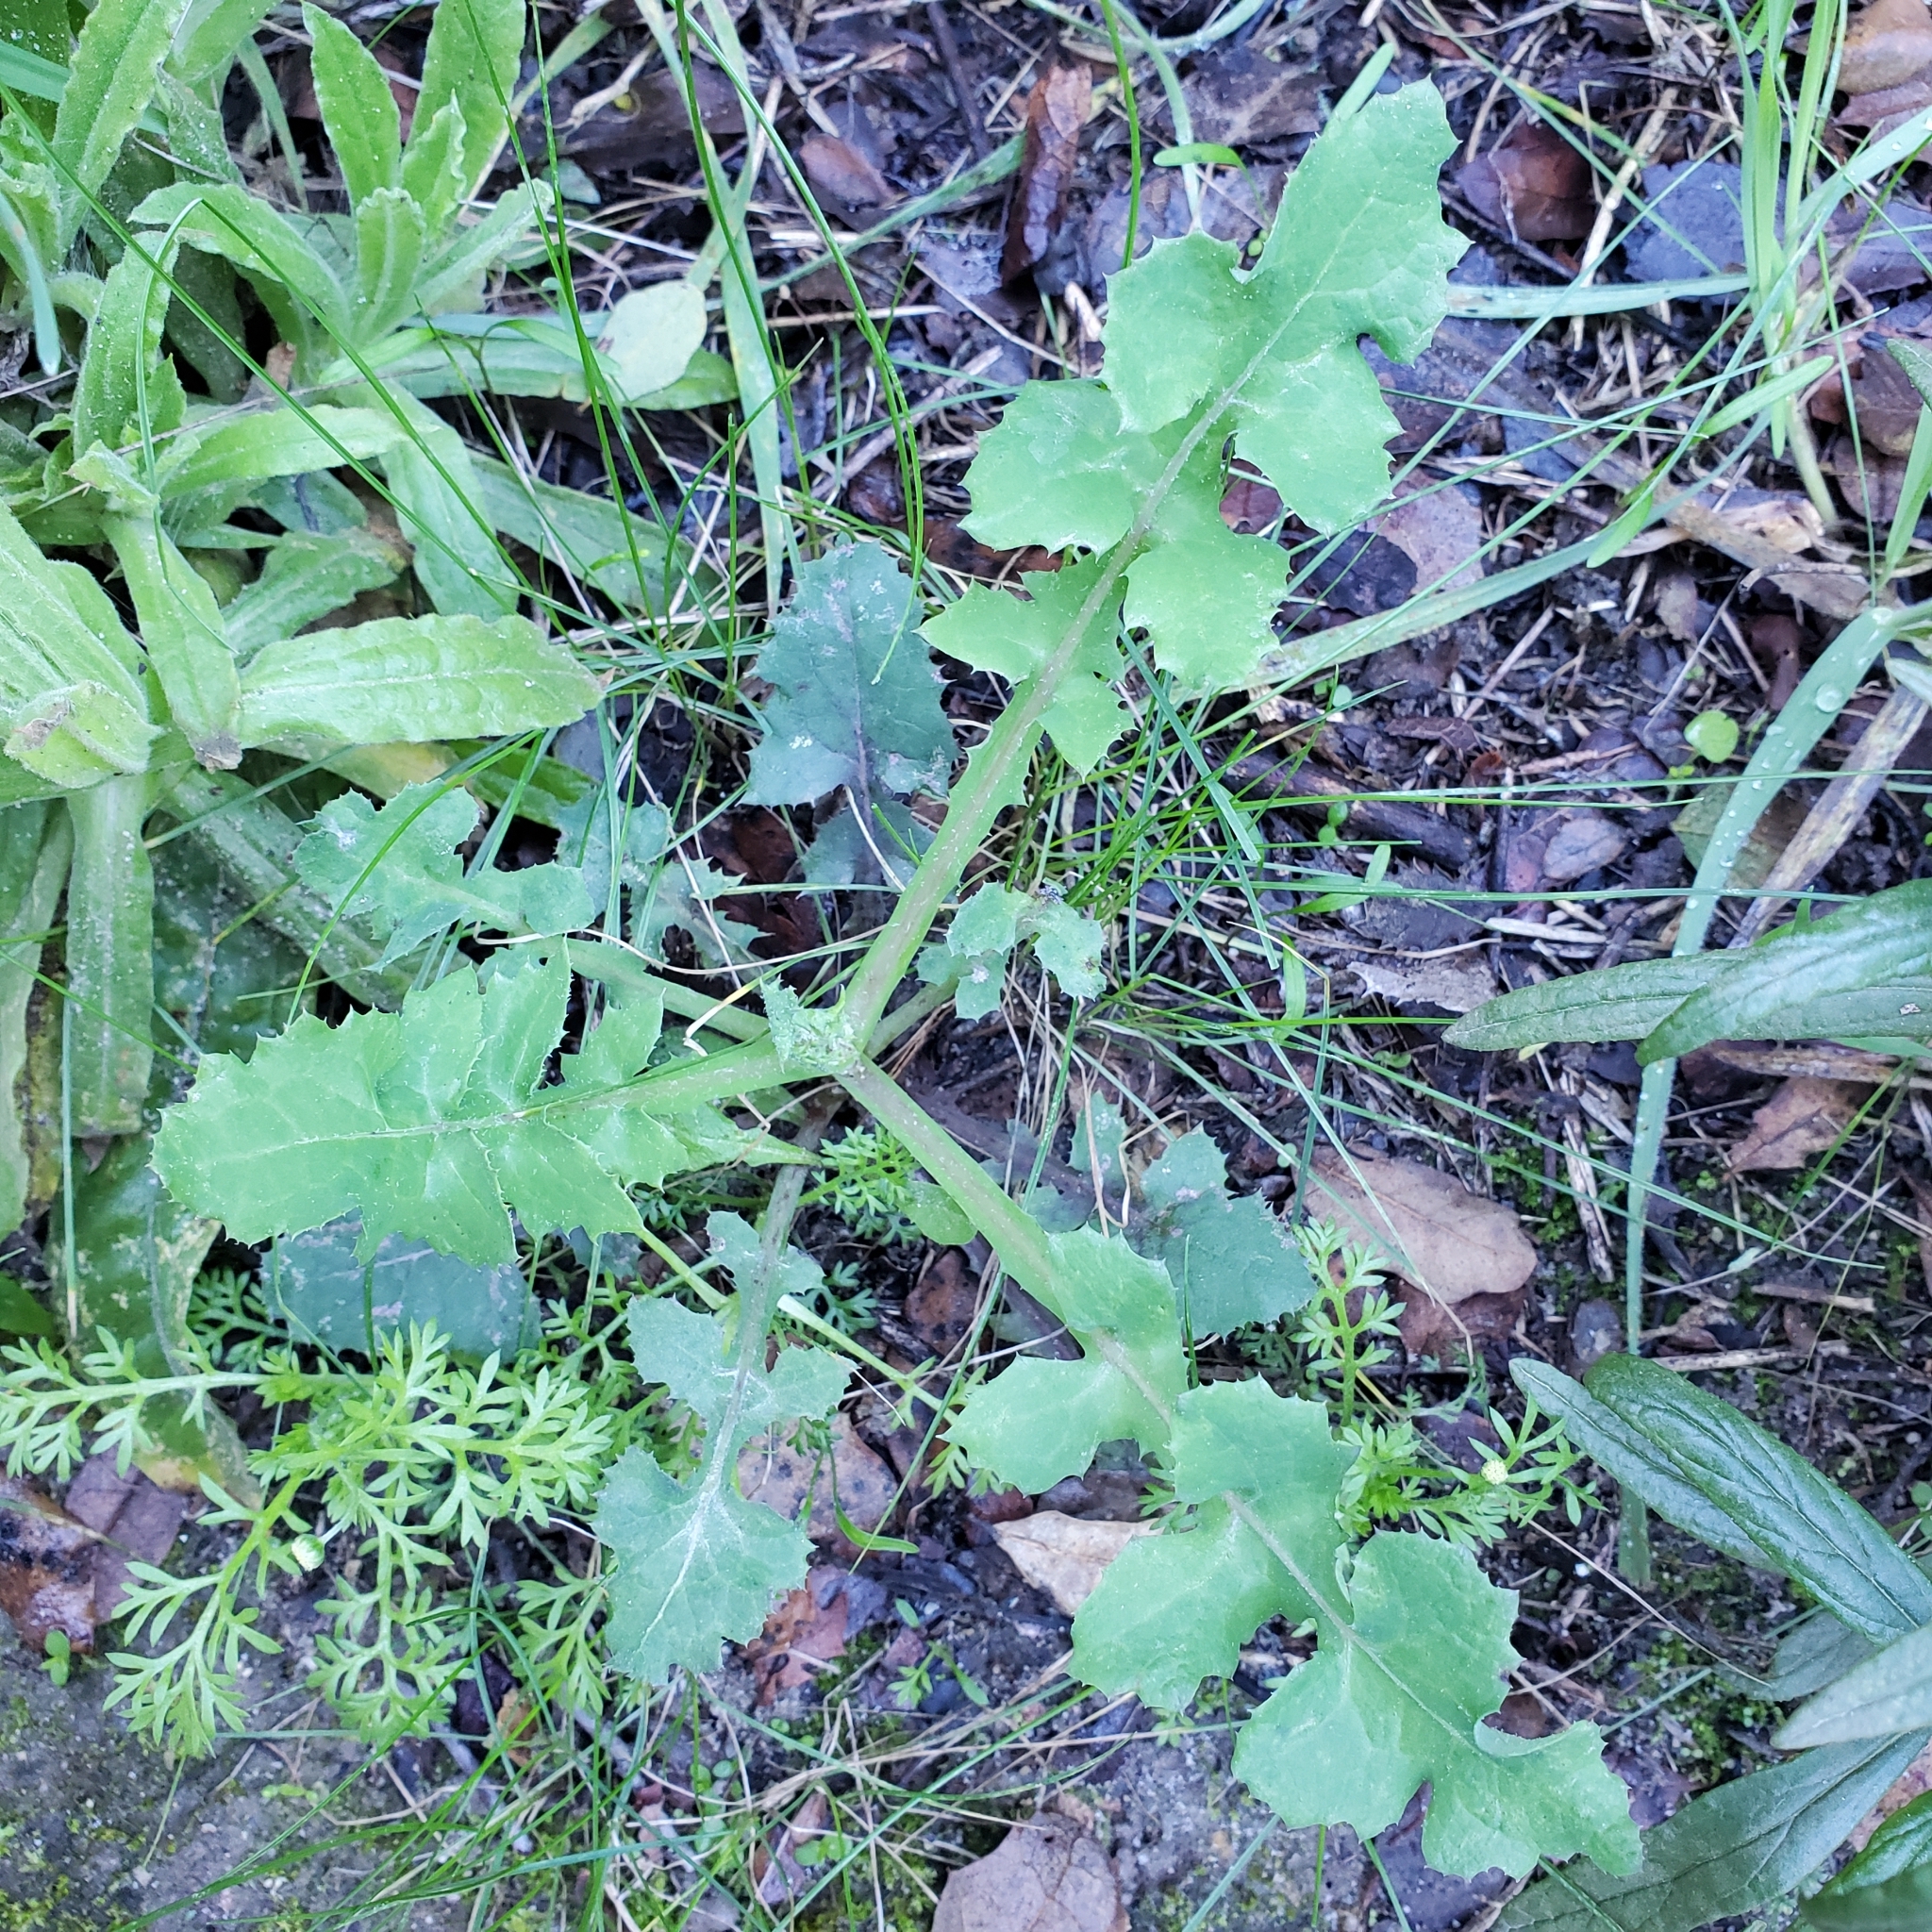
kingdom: Plantae
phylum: Tracheophyta
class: Magnoliopsida
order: Asterales
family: Asteraceae
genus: Sonchus
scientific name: Sonchus oleraceus
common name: Common sowthistle
